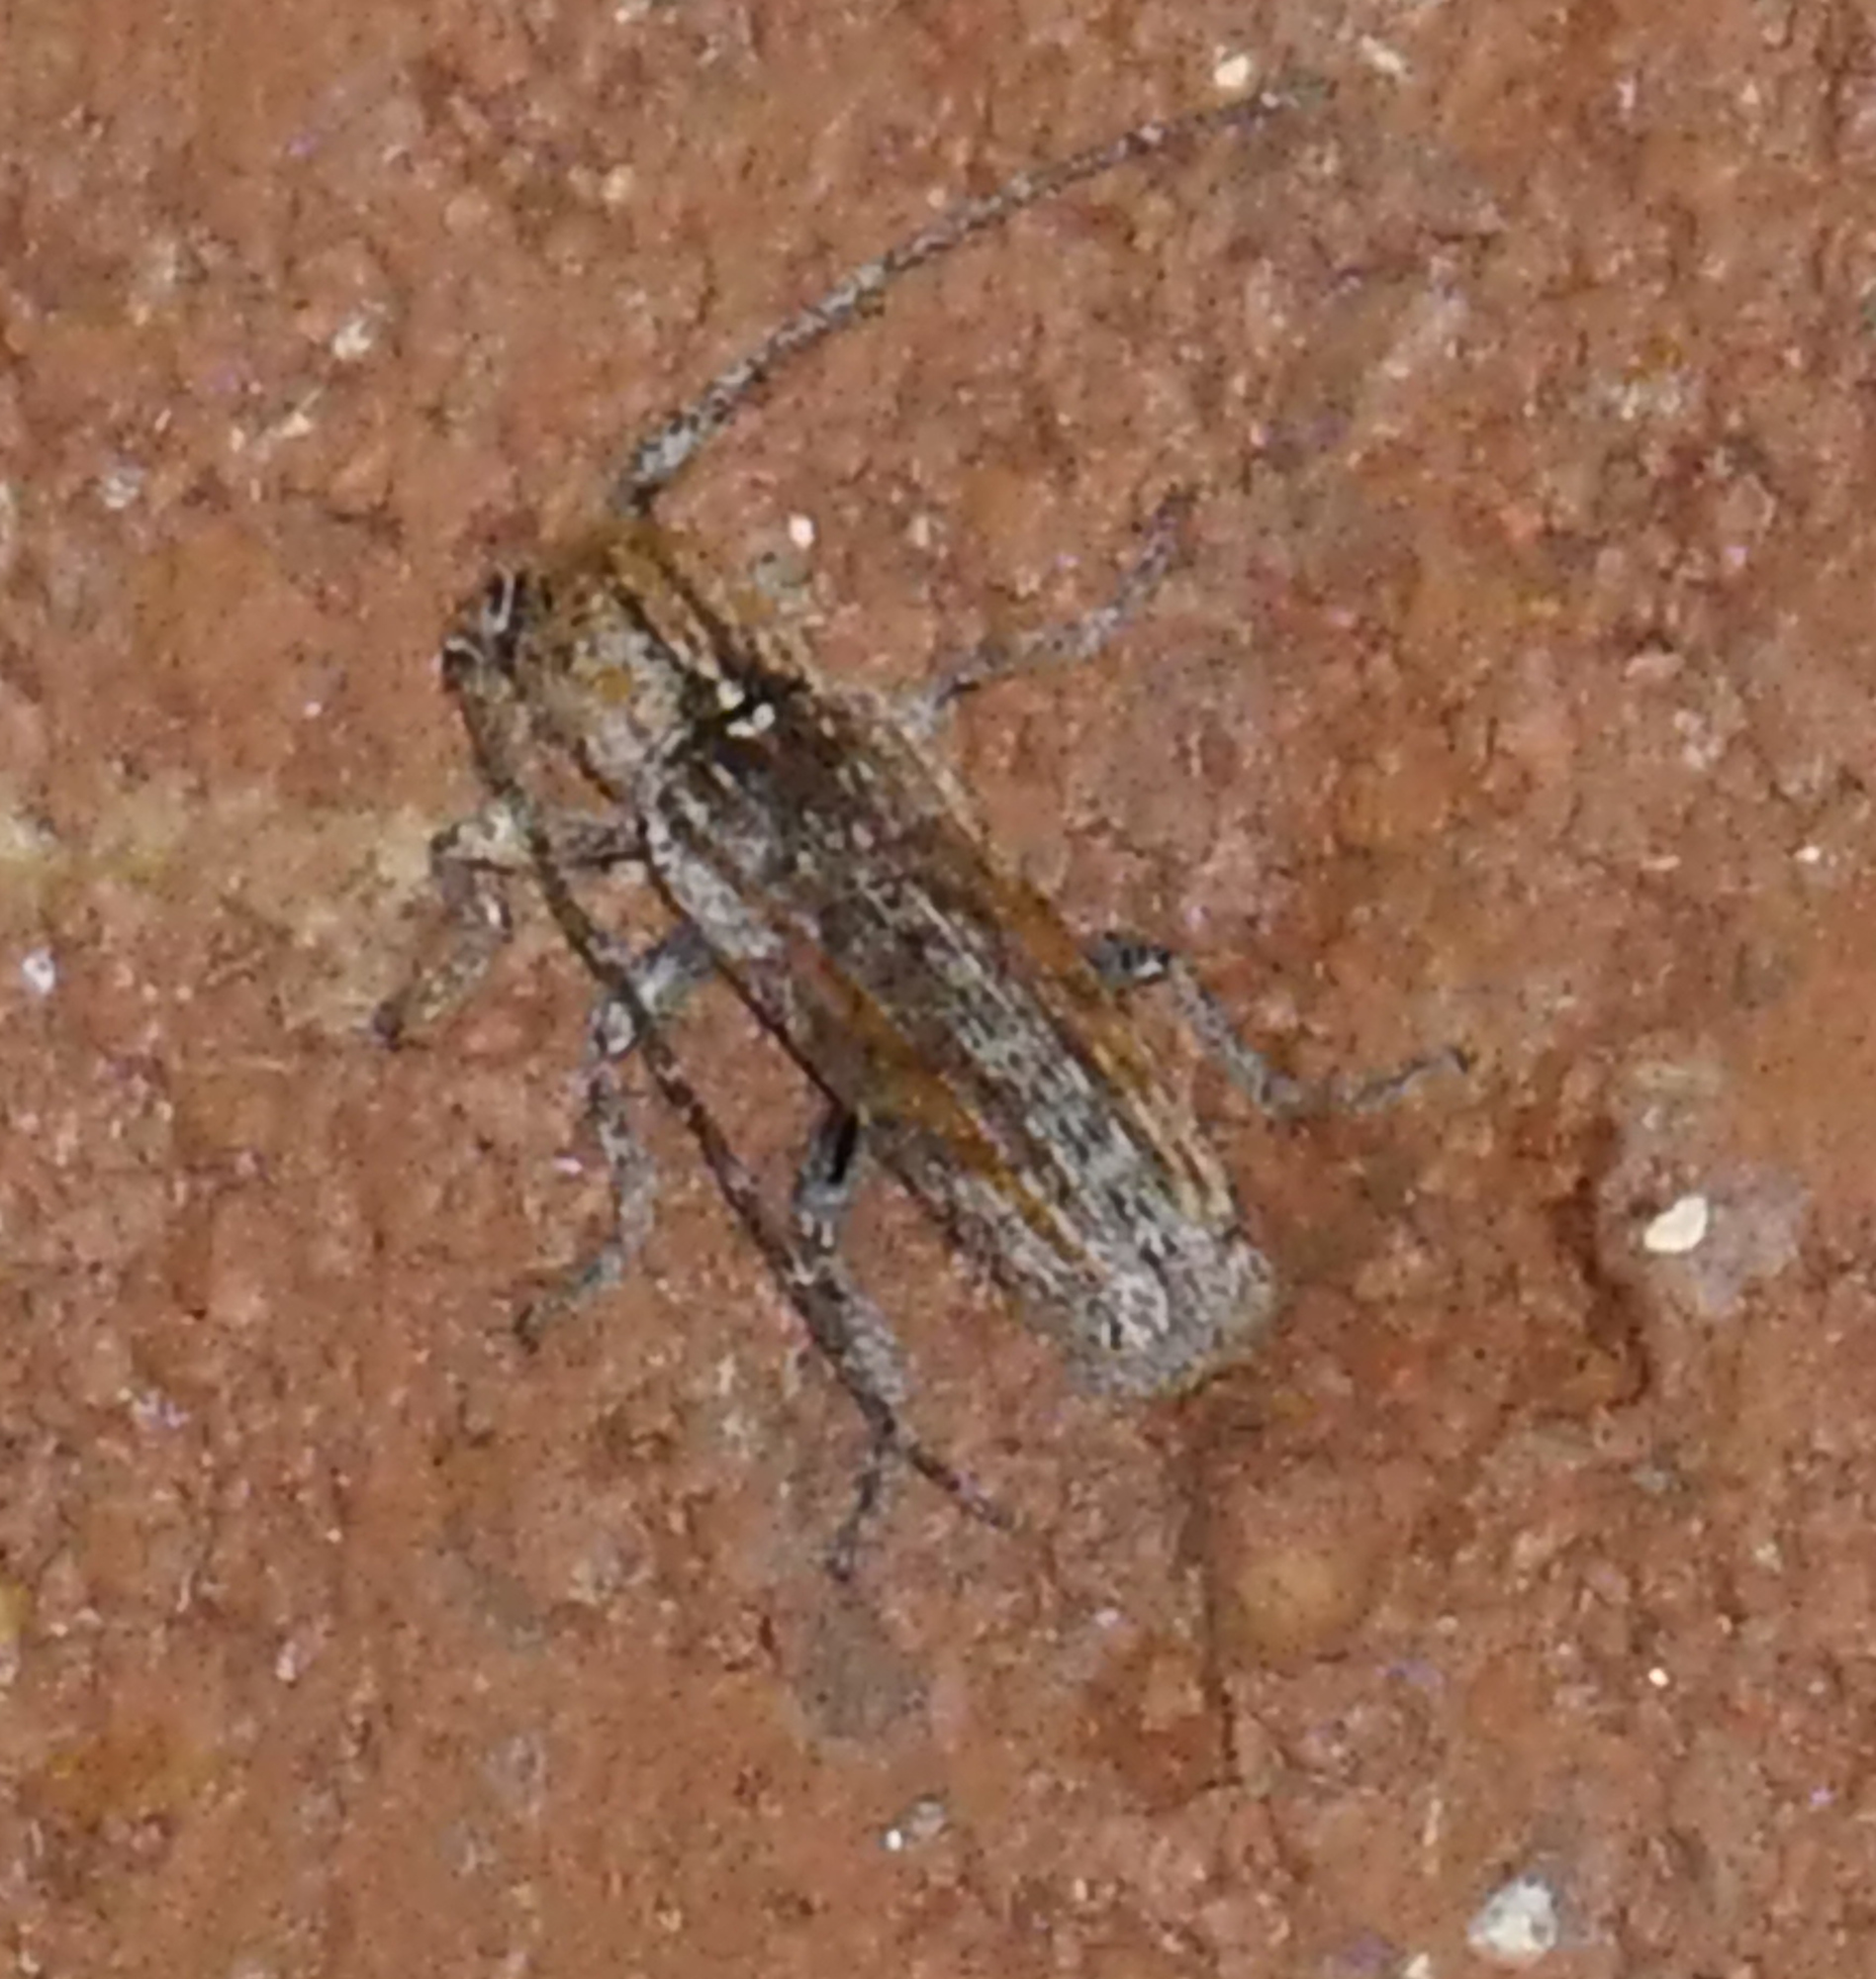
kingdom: Animalia
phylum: Arthropoda
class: Insecta
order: Coleoptera
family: Cerambycidae
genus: Ataxia
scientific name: Ataxia arizonica
